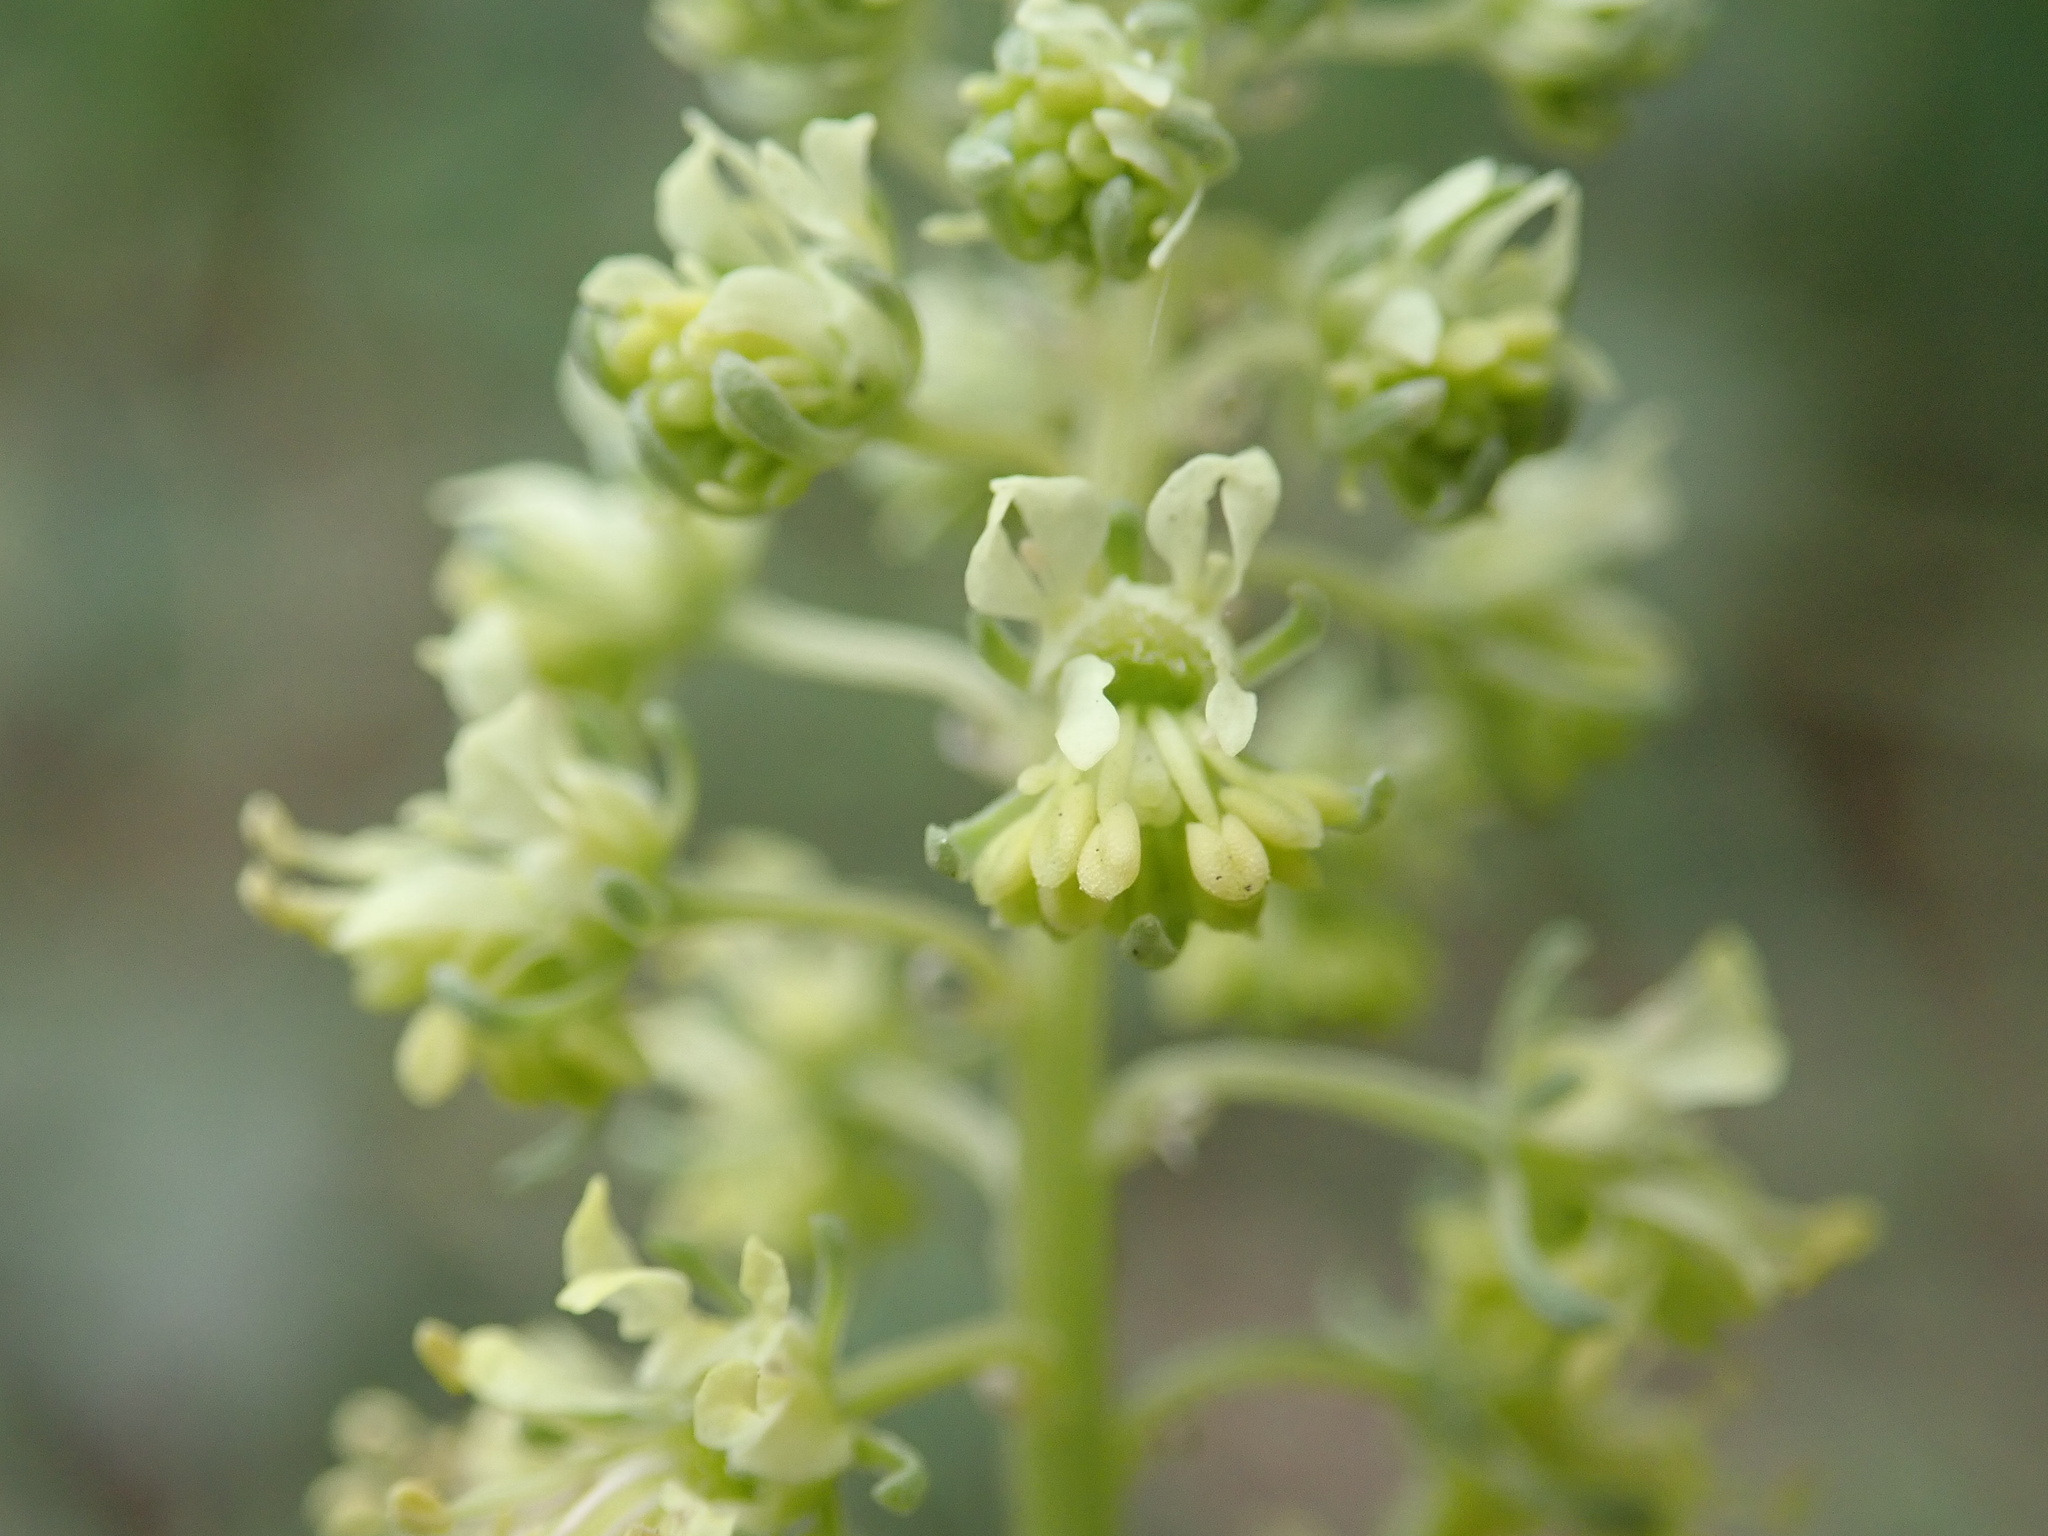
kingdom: Plantae
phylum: Tracheophyta
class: Magnoliopsida
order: Brassicales
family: Resedaceae
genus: Reseda
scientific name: Reseda lutea
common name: Wild mignonette
